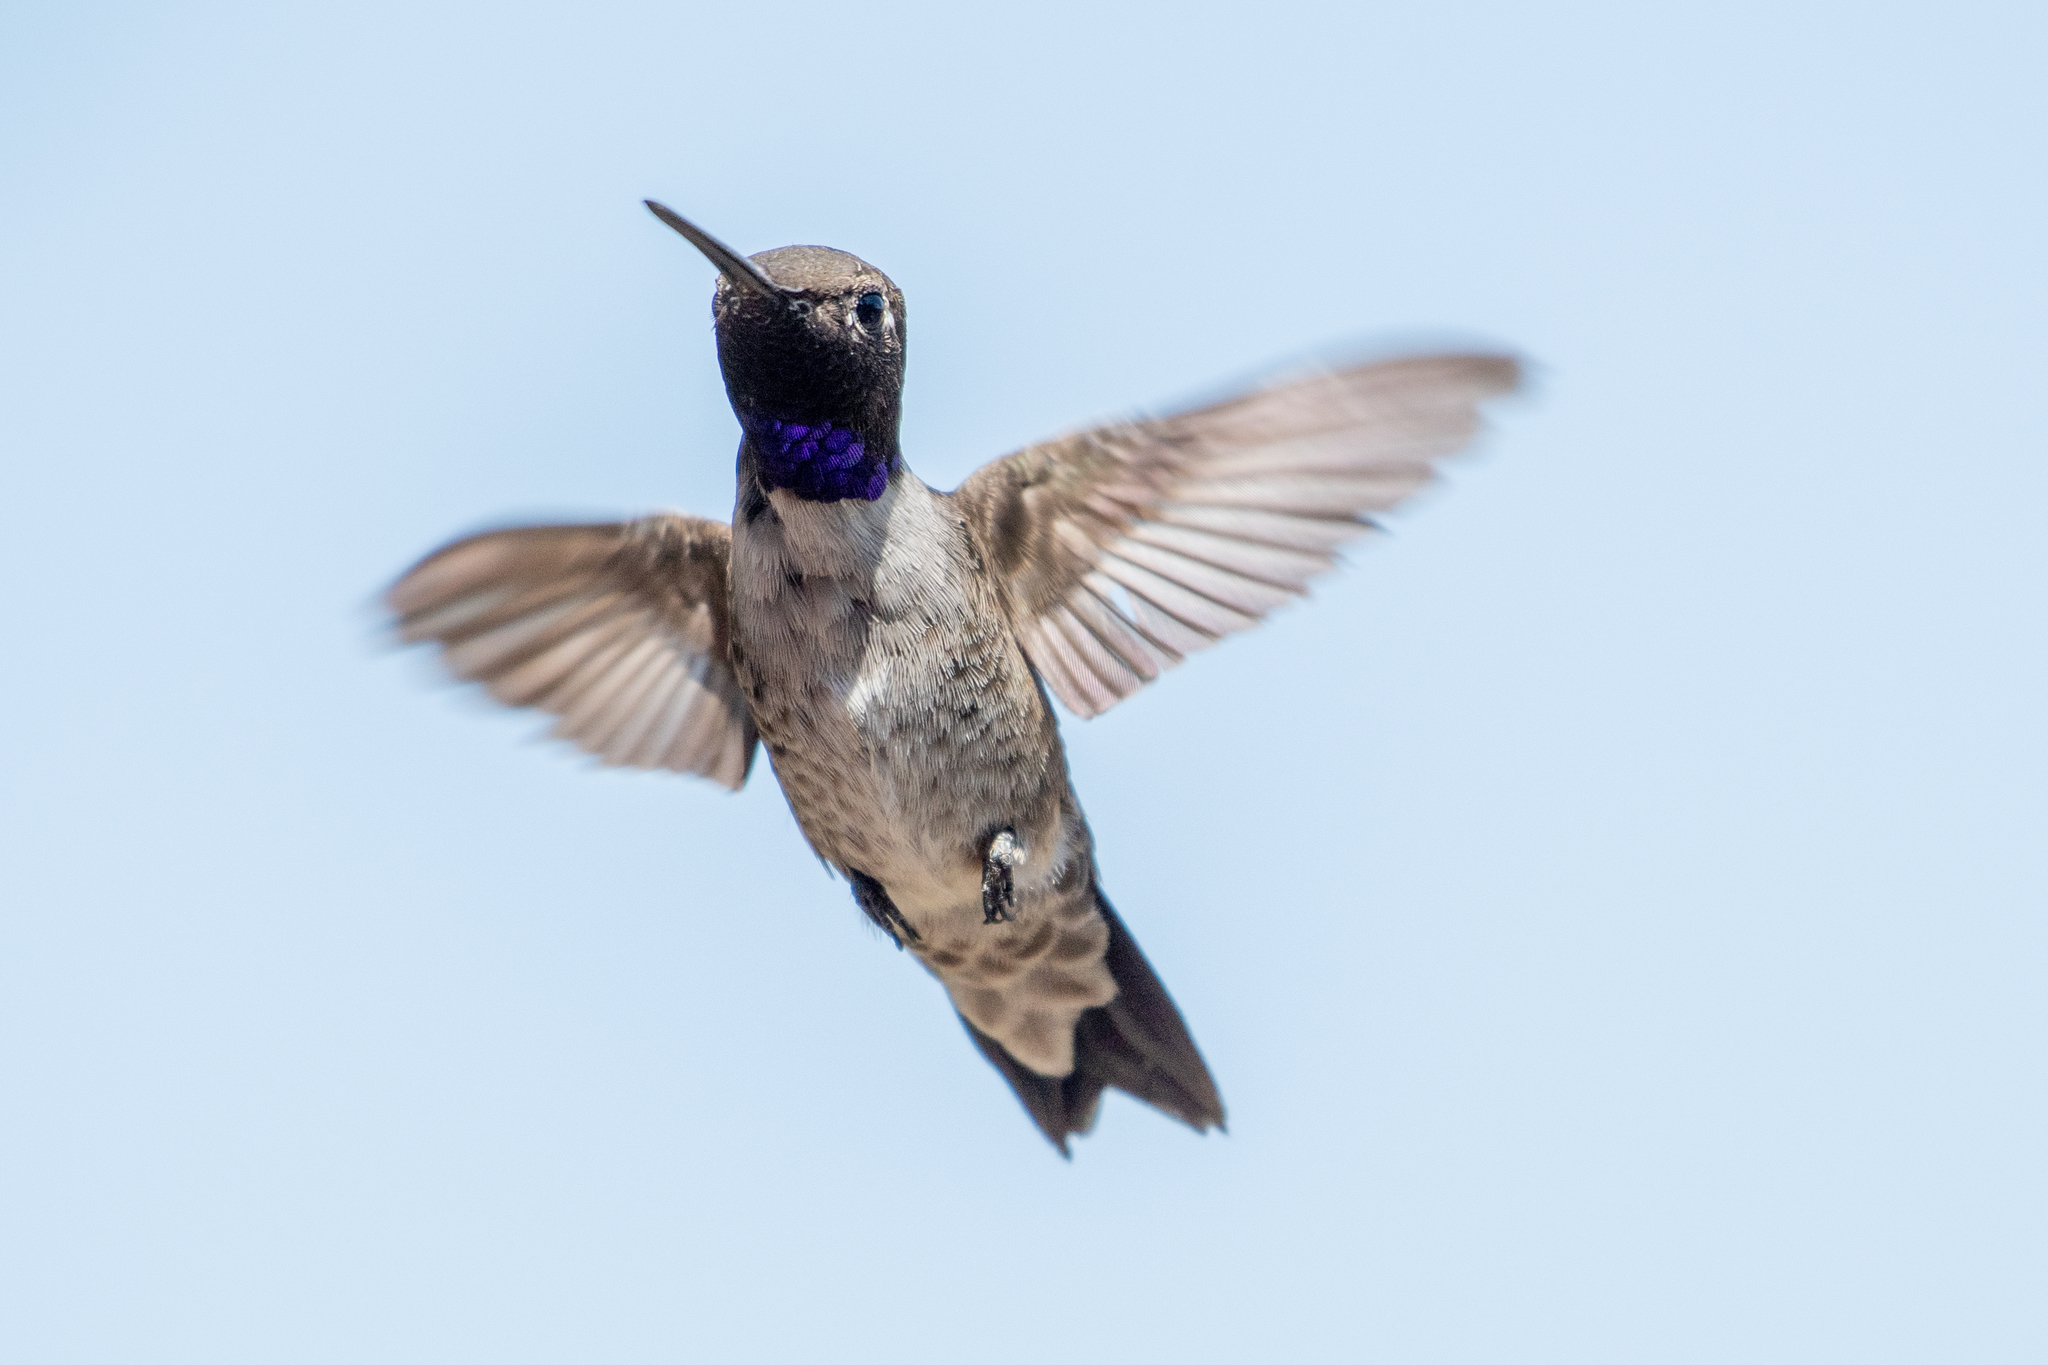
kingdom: Animalia
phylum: Chordata
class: Aves
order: Apodiformes
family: Trochilidae
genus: Archilochus
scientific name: Archilochus alexandri
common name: Black-chinned hummingbird
